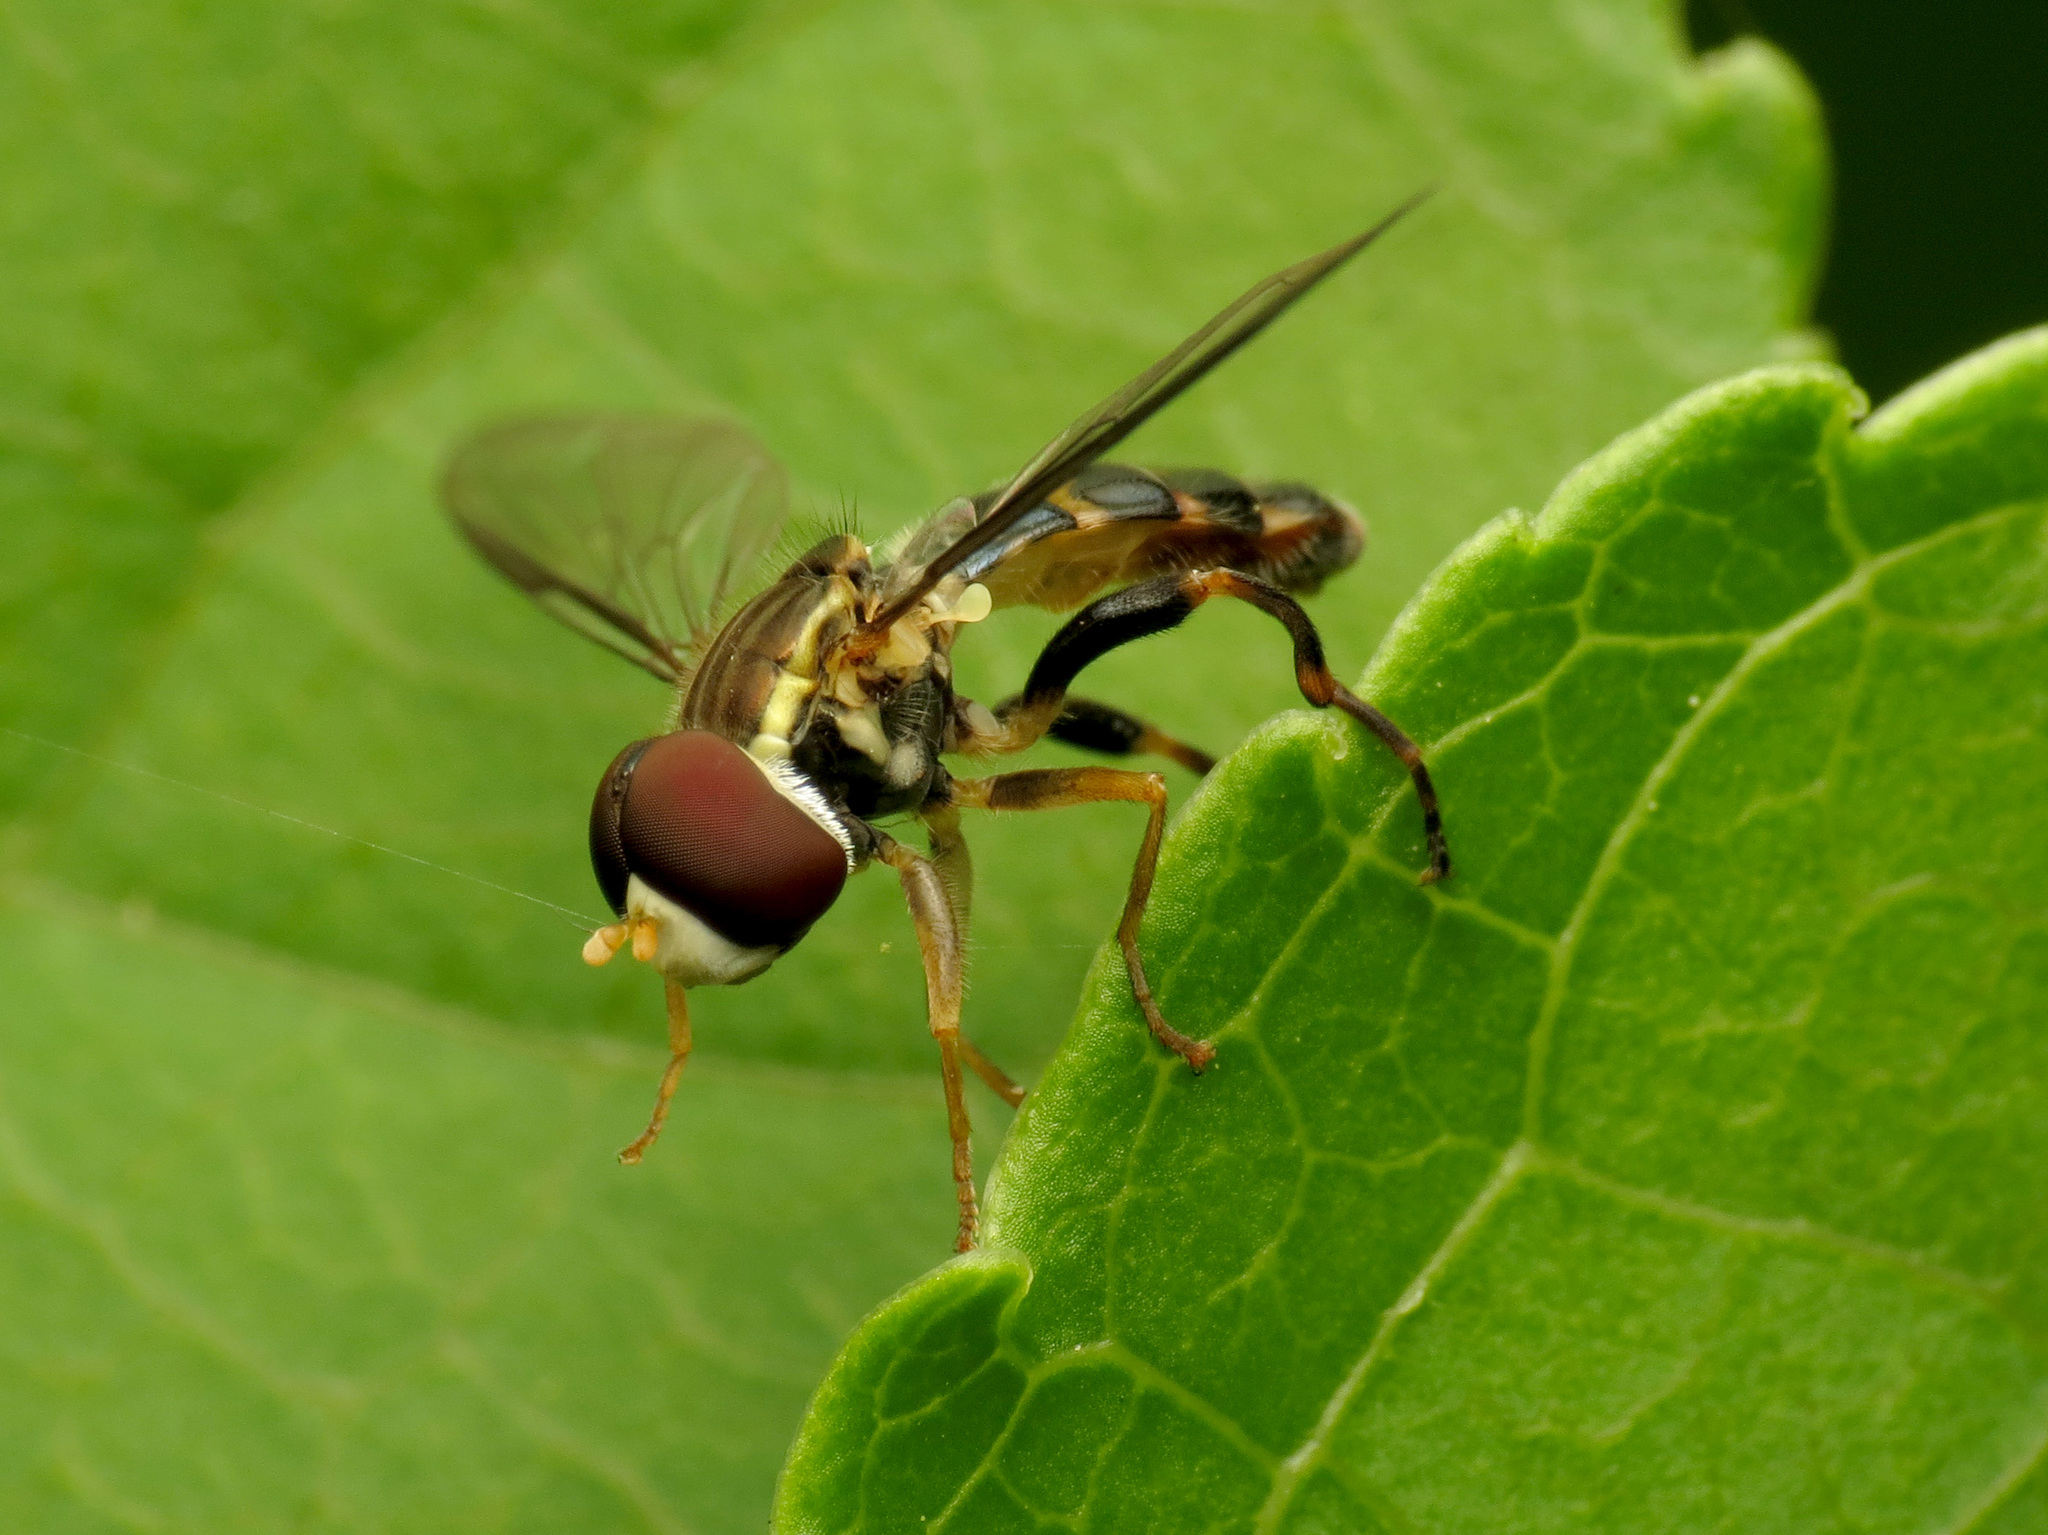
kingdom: Animalia
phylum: Arthropoda
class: Insecta
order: Diptera
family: Syrphidae
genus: Toxomerus
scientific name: Toxomerus geminatus
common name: Eastern calligrapher
